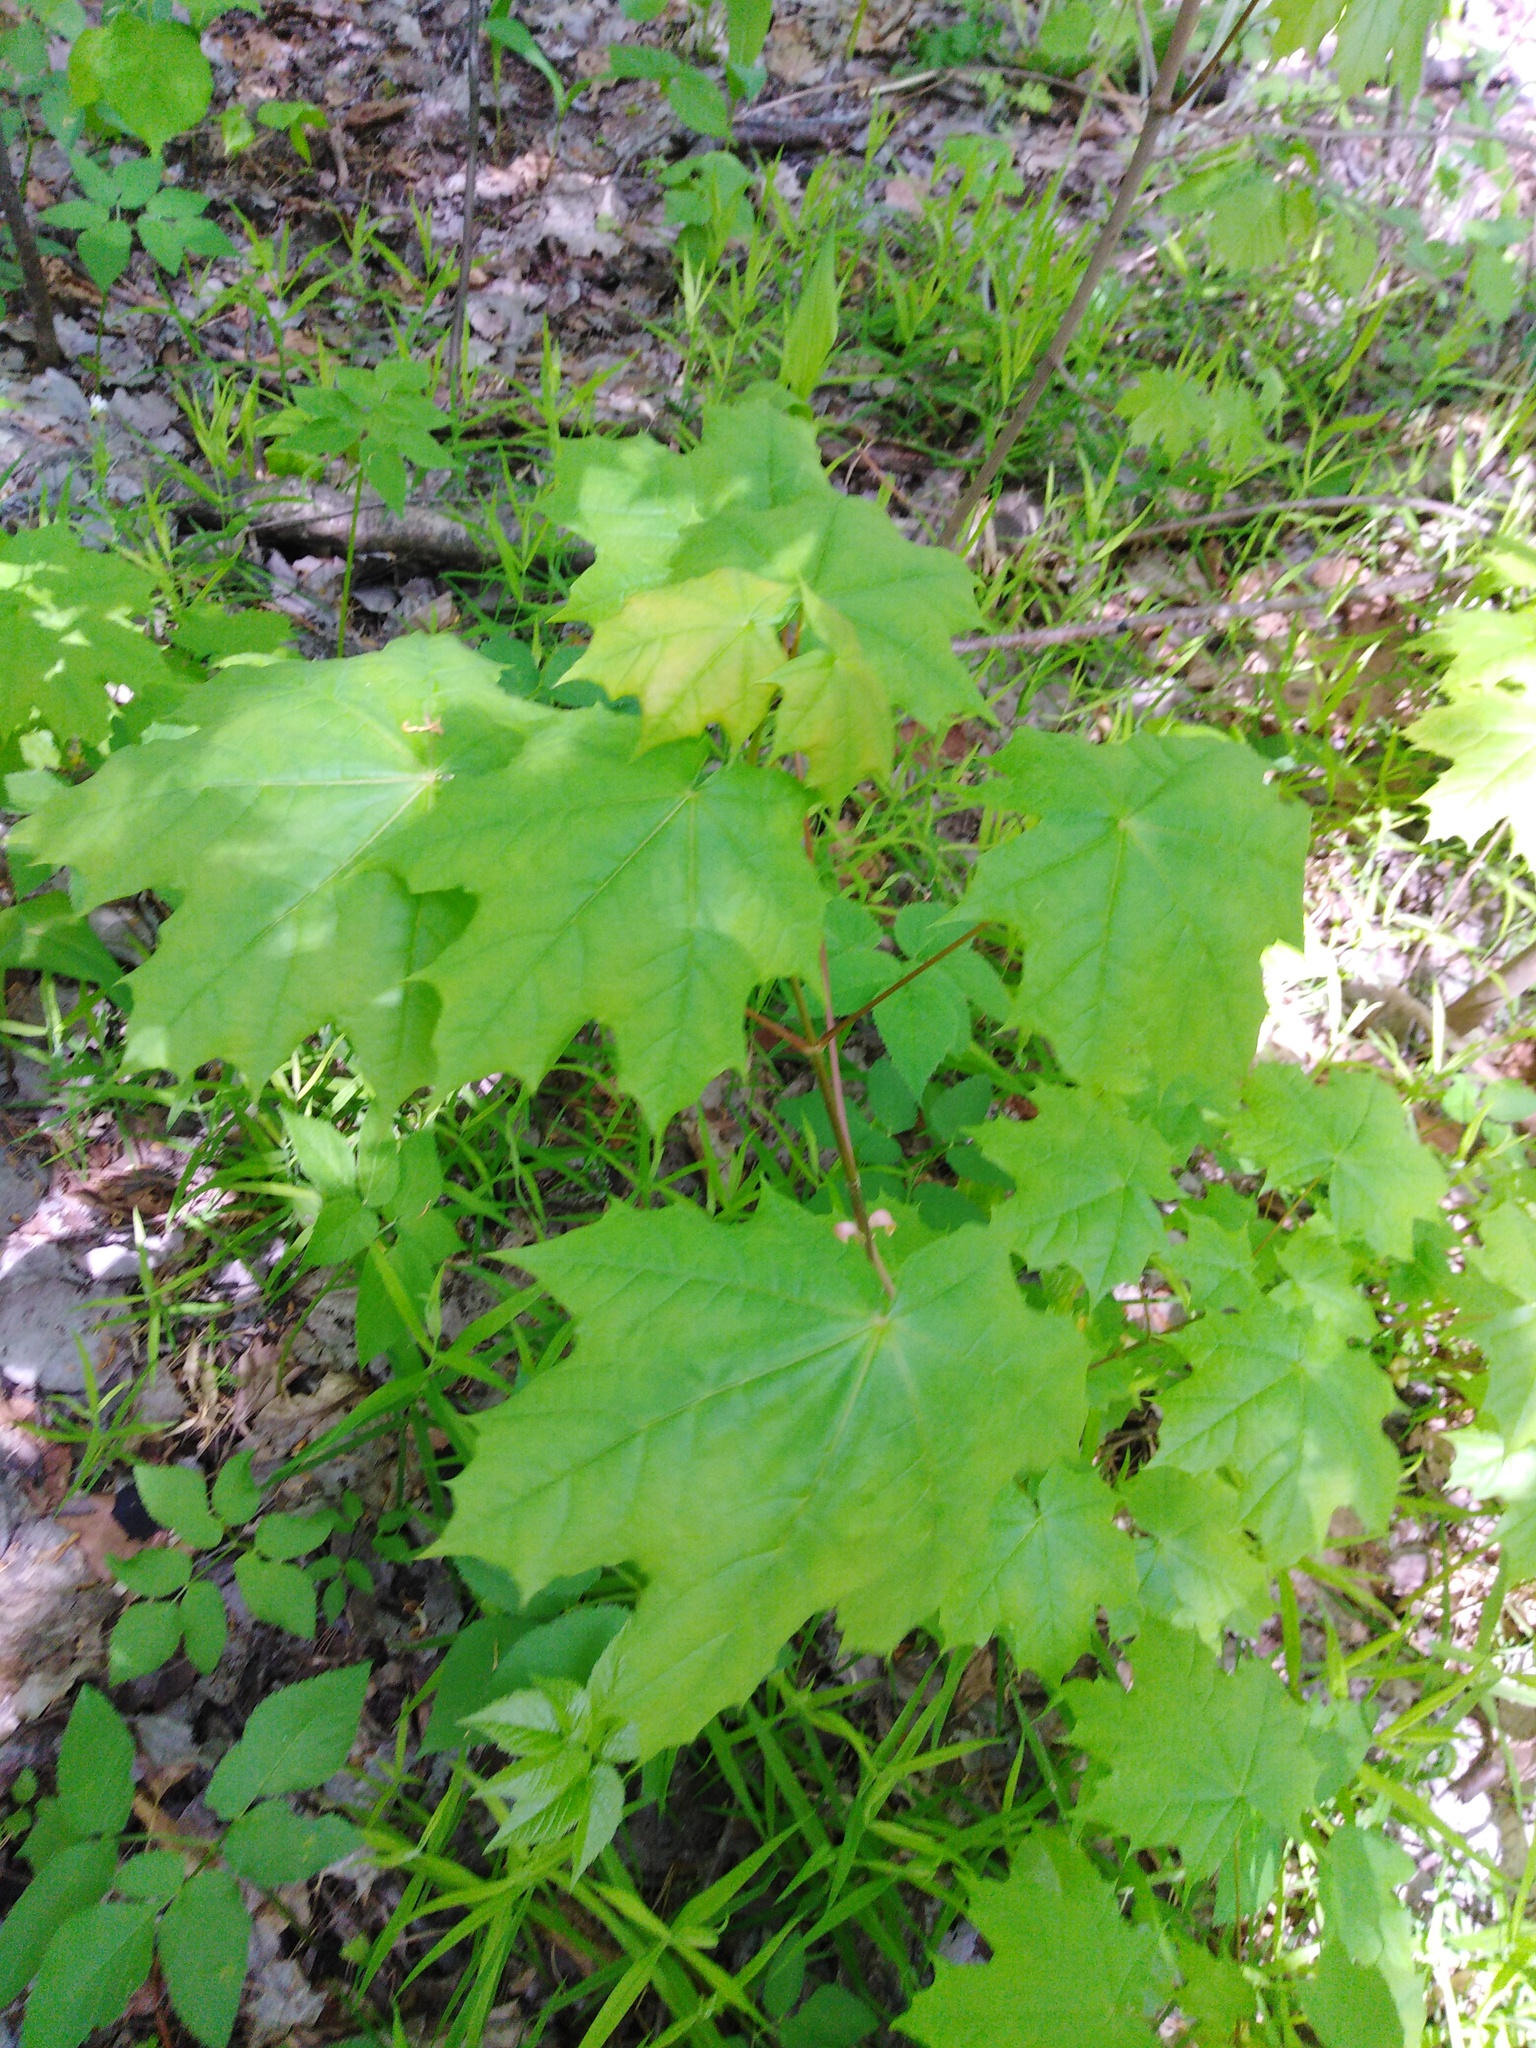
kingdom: Plantae
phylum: Tracheophyta
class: Magnoliopsida
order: Sapindales
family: Sapindaceae
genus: Acer
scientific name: Acer platanoides
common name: Norway maple
